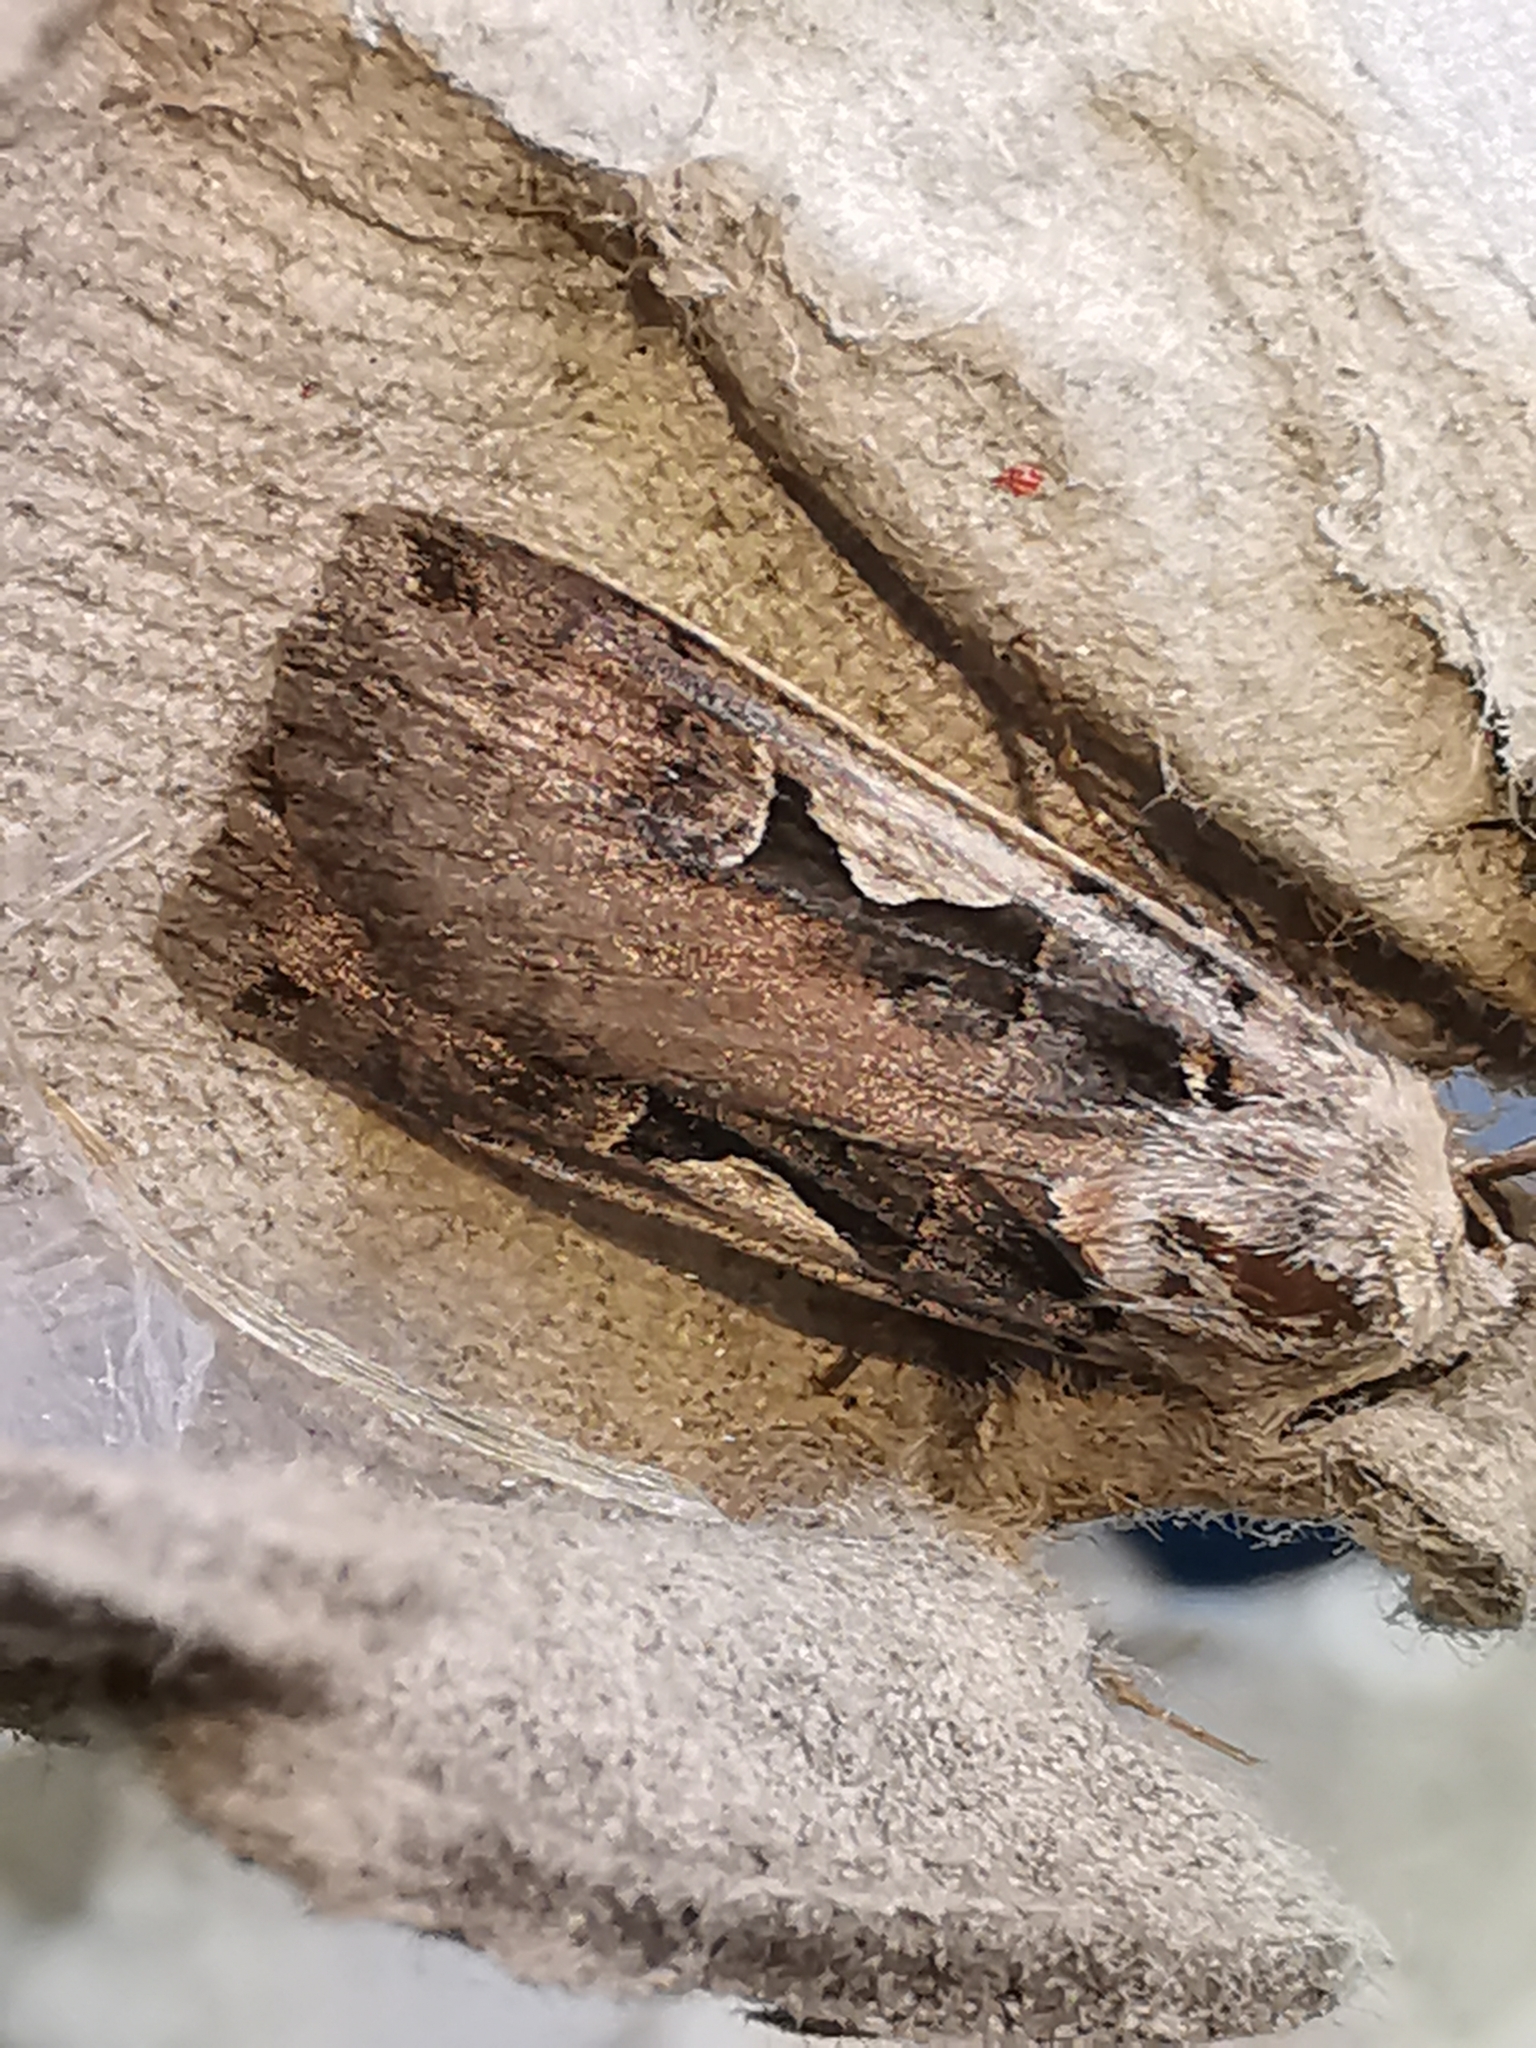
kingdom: Animalia
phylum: Arthropoda
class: Insecta
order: Lepidoptera
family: Noctuidae
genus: Xestia
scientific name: Xestia c-nigrum
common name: Setaceous hebrew character
